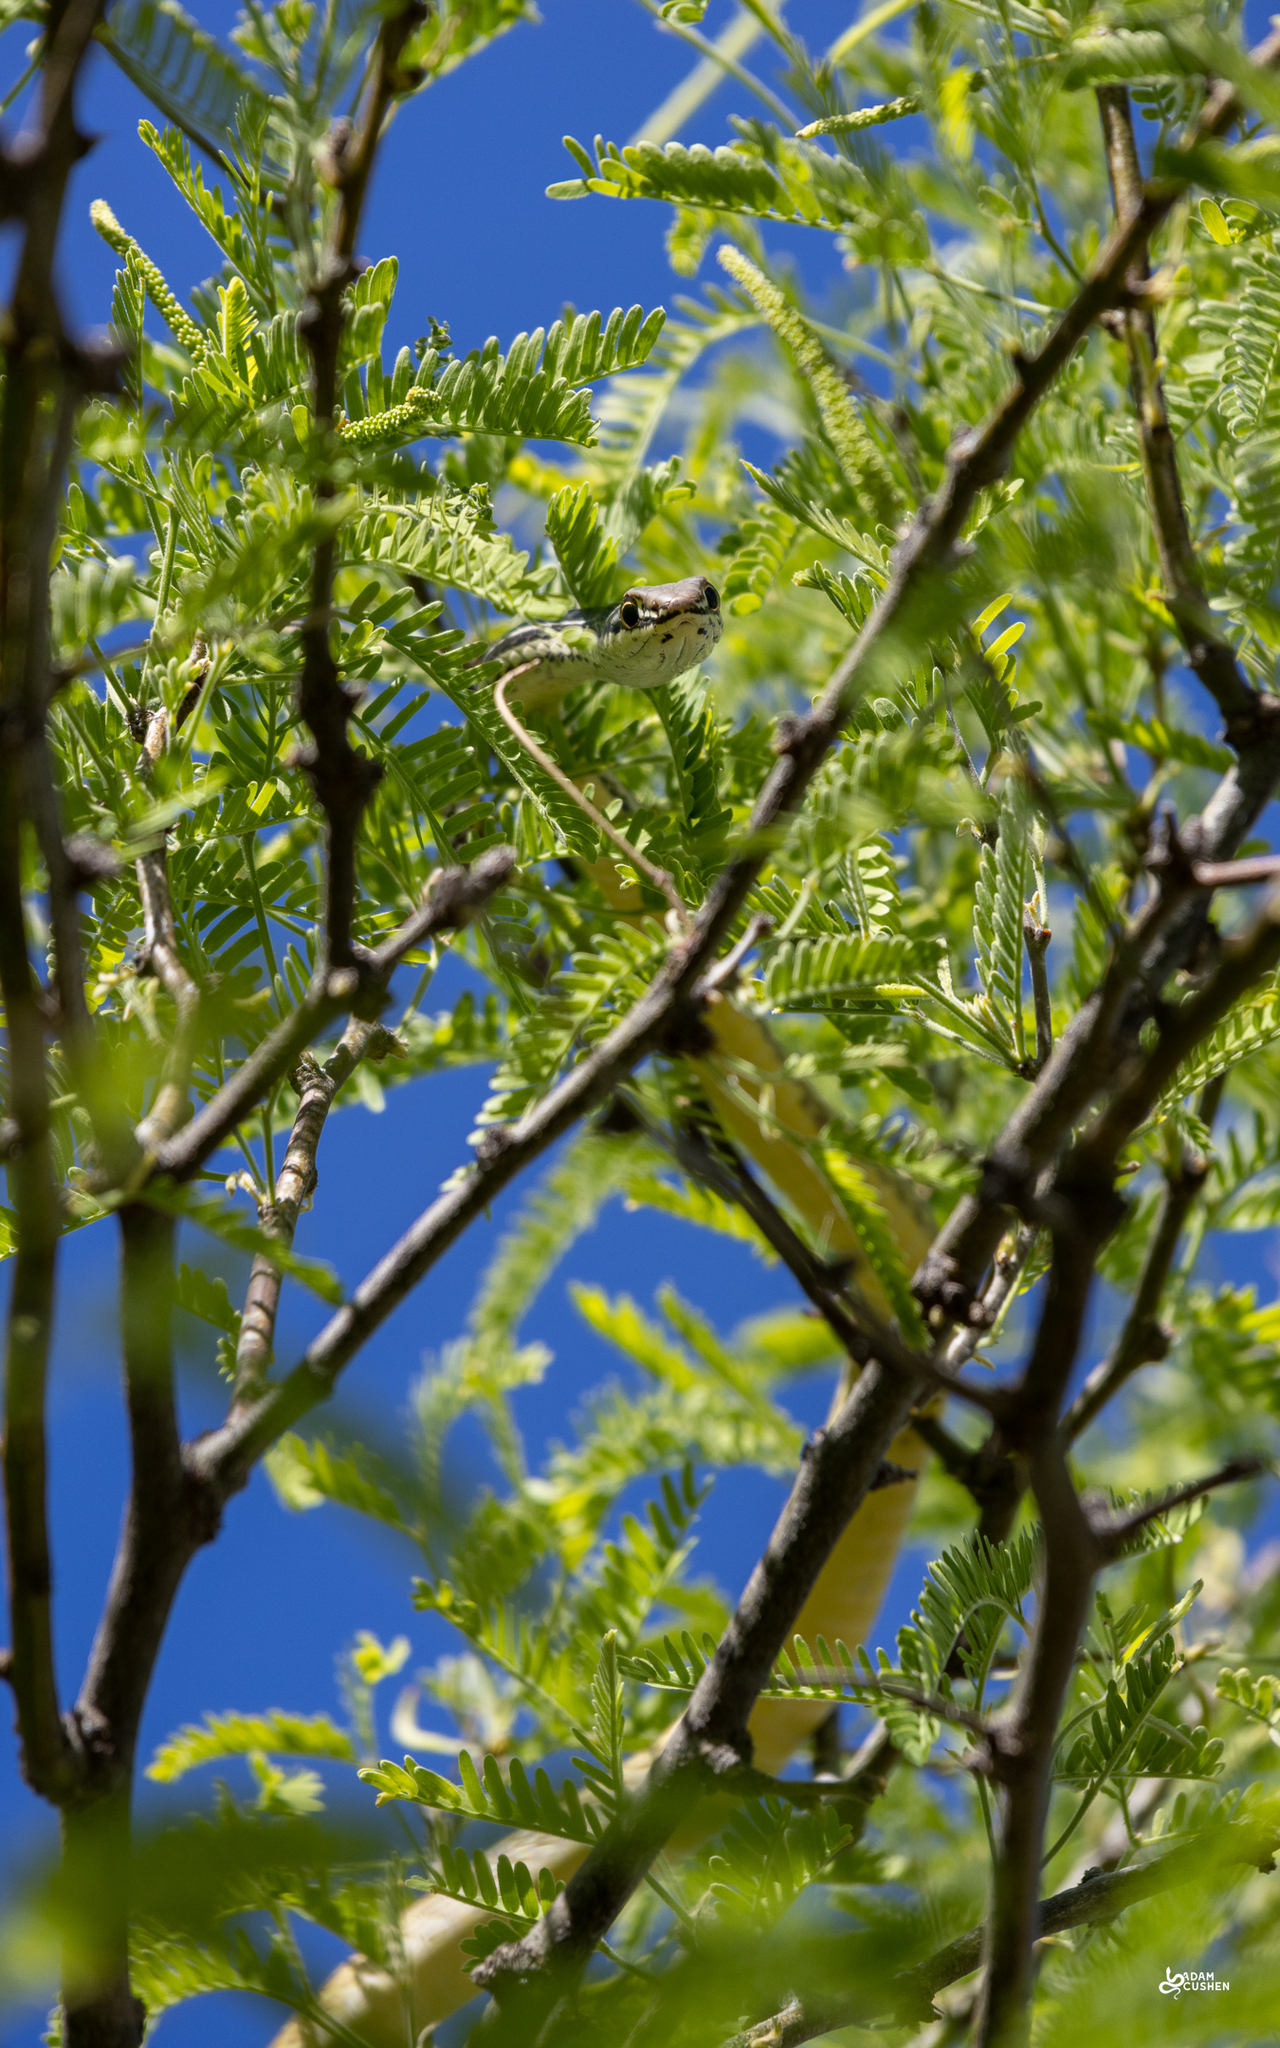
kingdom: Animalia
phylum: Chordata
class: Squamata
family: Colubridae
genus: Masticophis
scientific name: Masticophis bilineatus
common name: Sonoran whipsnake
